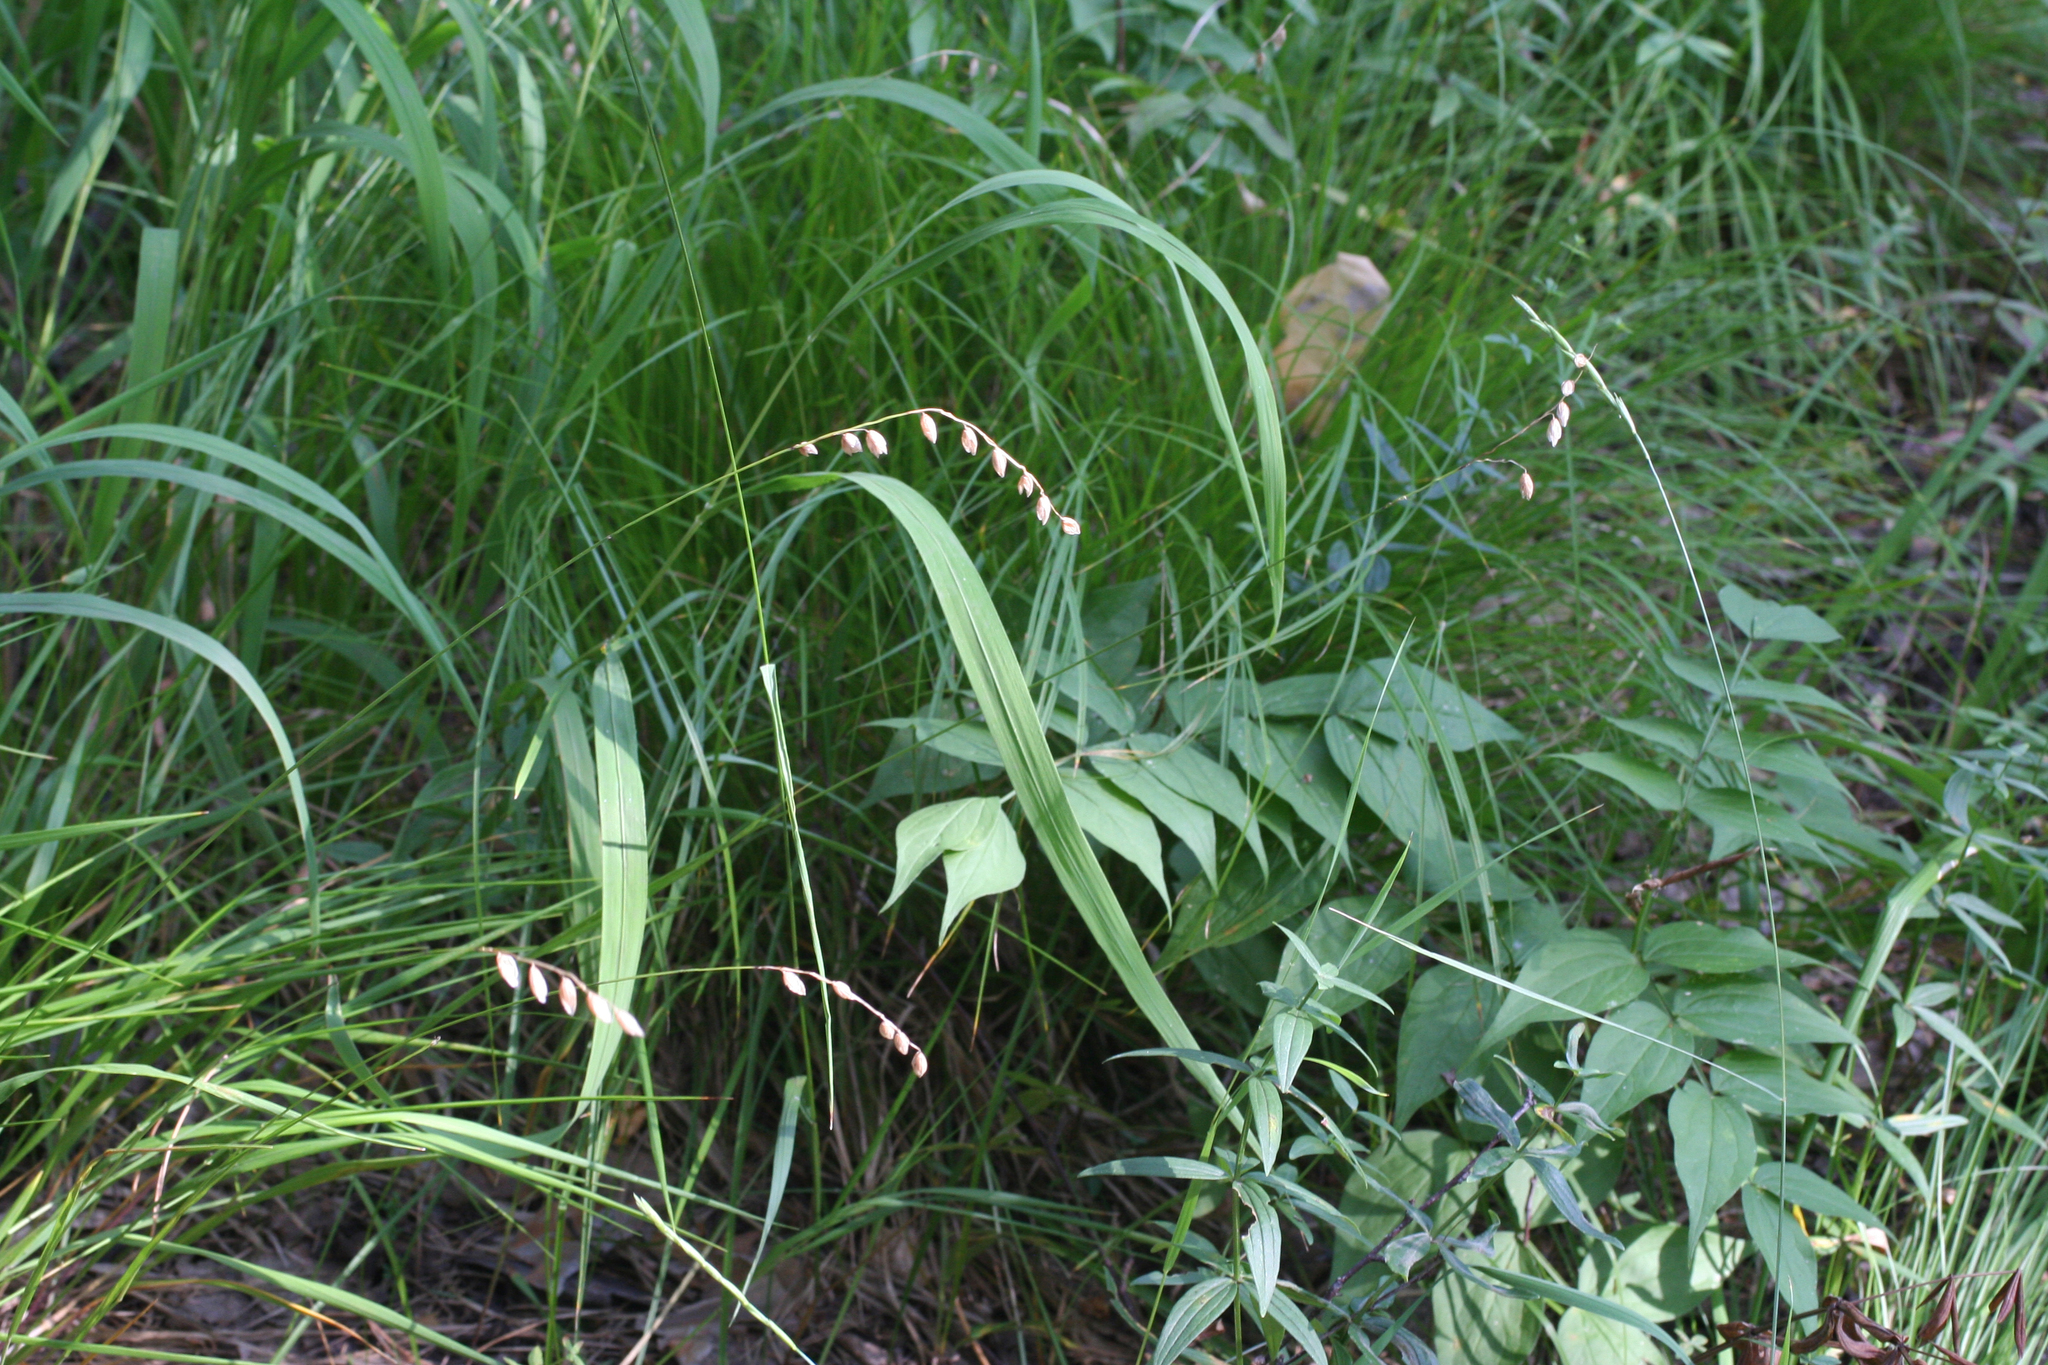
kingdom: Plantae
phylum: Tracheophyta
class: Liliopsida
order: Poales
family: Poaceae
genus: Melica
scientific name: Melica nutans
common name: Mountain melick
